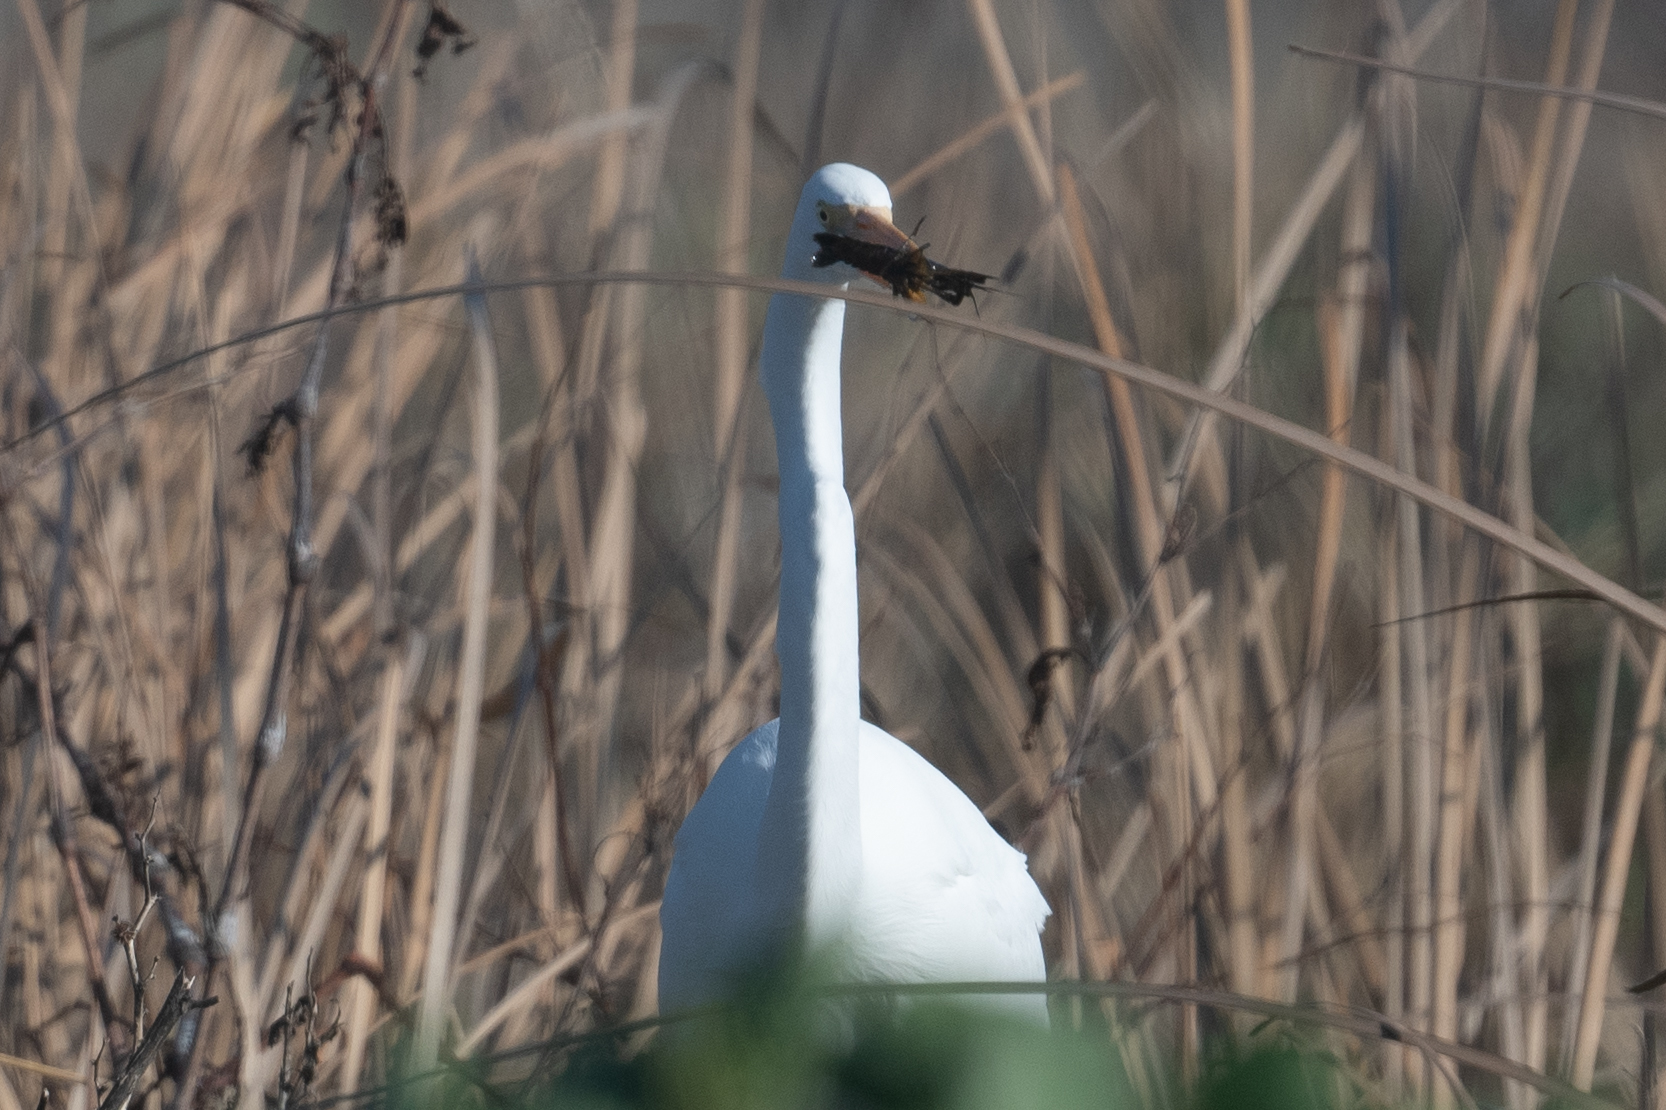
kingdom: Animalia
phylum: Chordata
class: Aves
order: Pelecaniformes
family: Ardeidae
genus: Ardea
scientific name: Ardea alba
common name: Great egret
